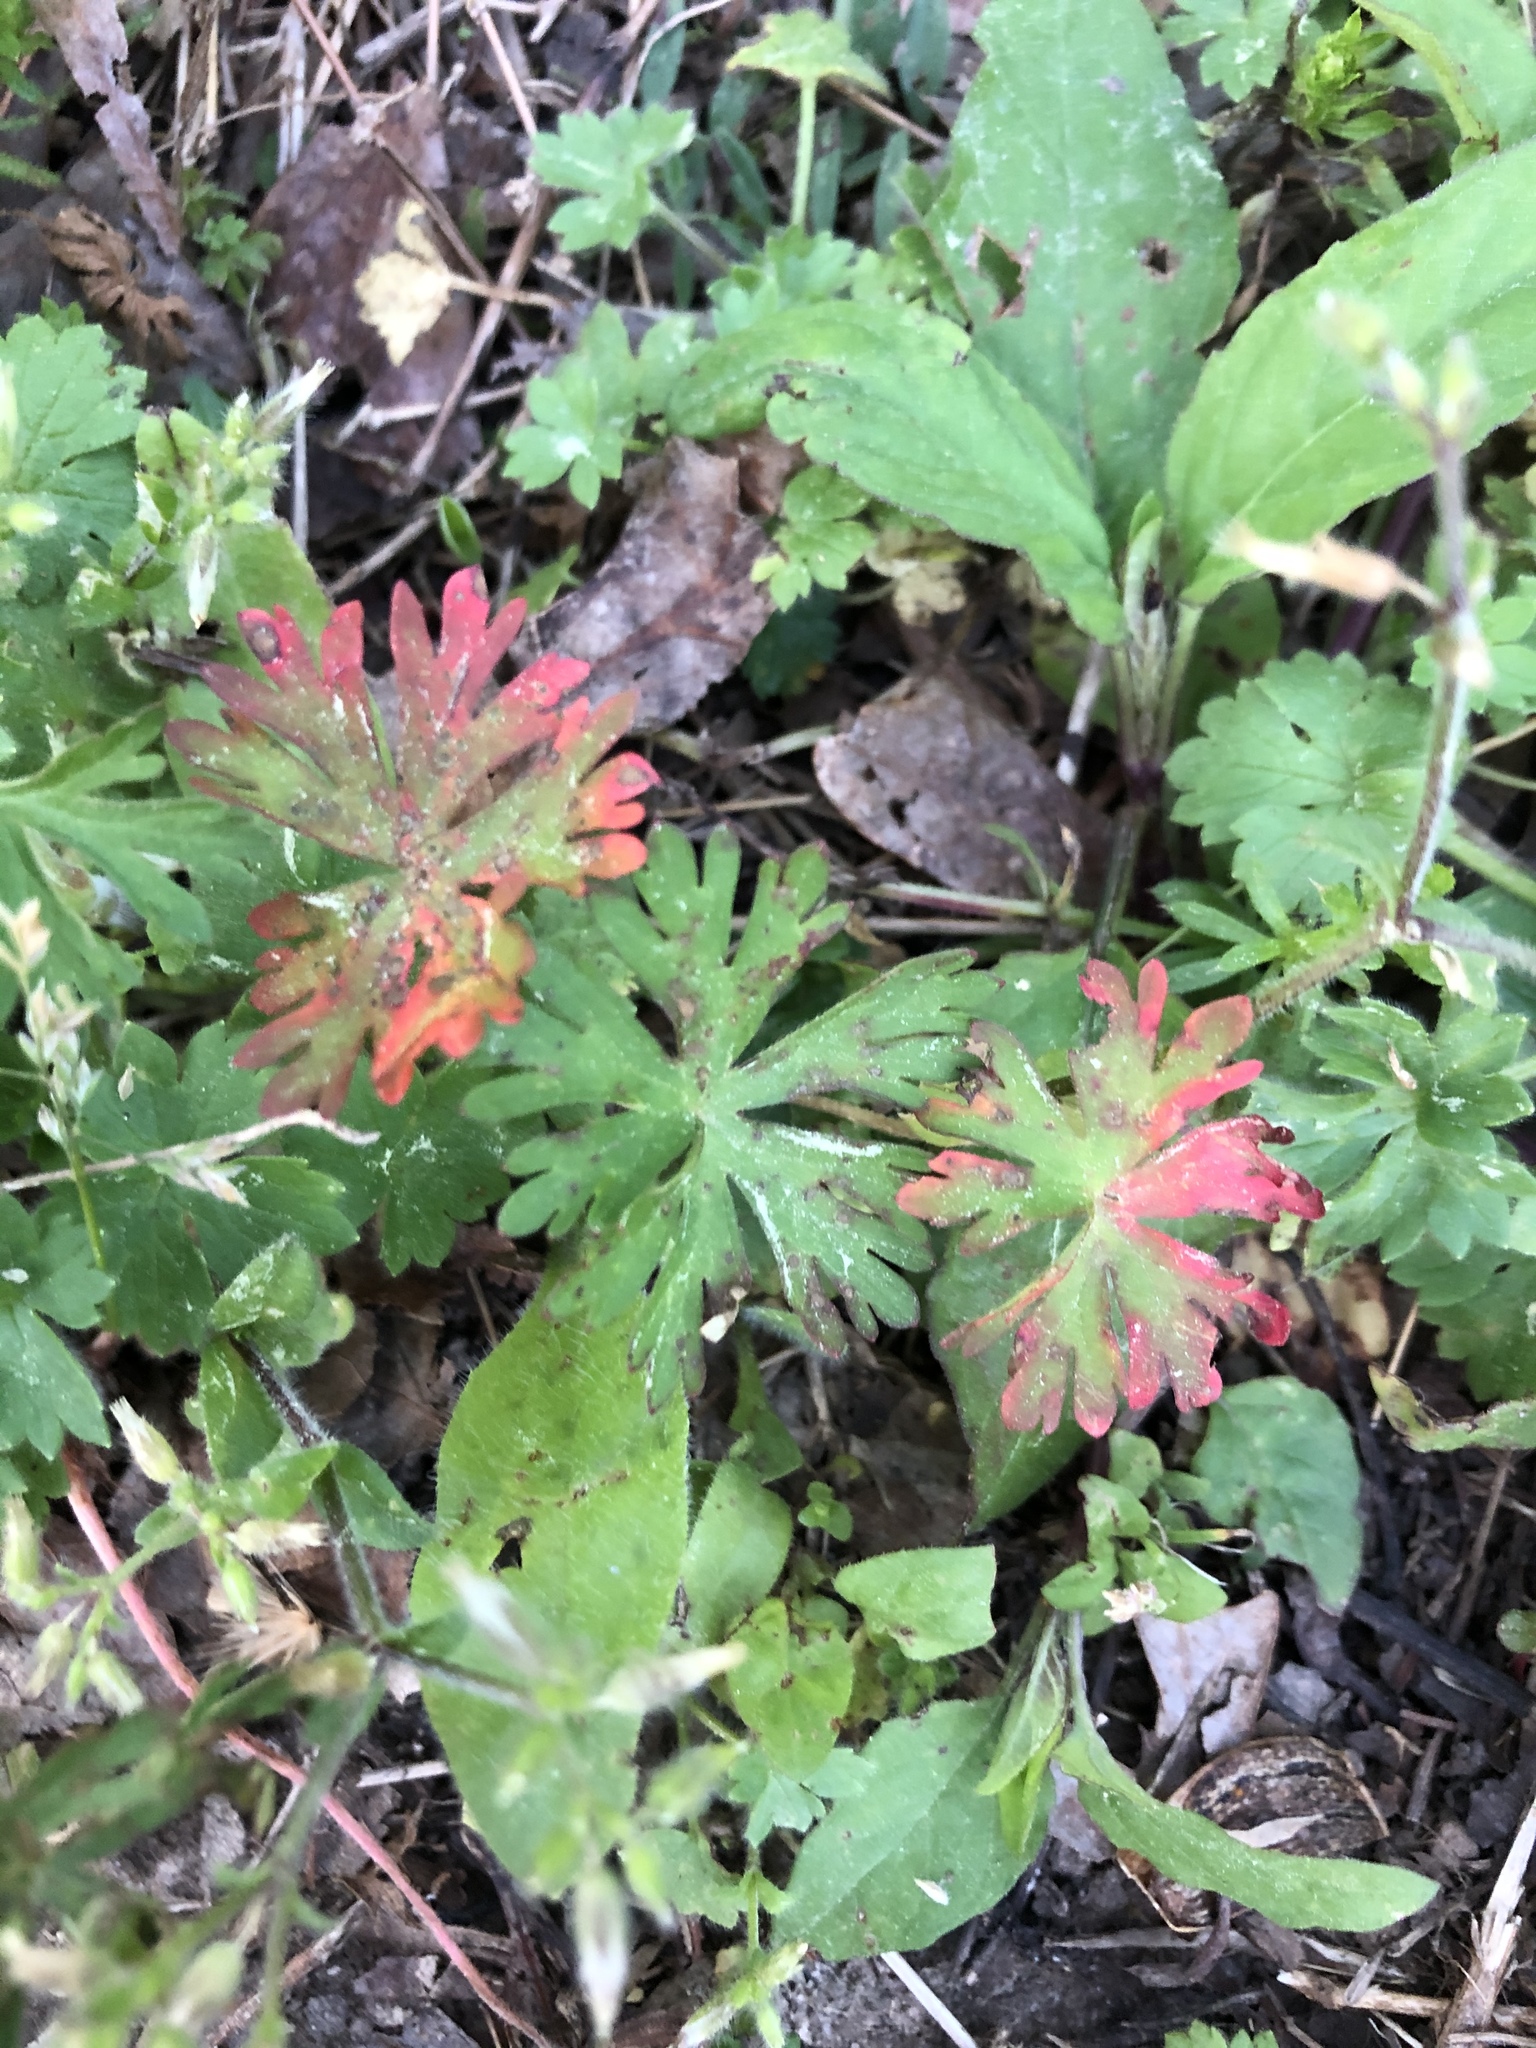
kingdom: Plantae
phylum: Tracheophyta
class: Magnoliopsida
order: Geraniales
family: Geraniaceae
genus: Geranium
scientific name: Geranium carolinianum
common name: Carolina crane's-bill
